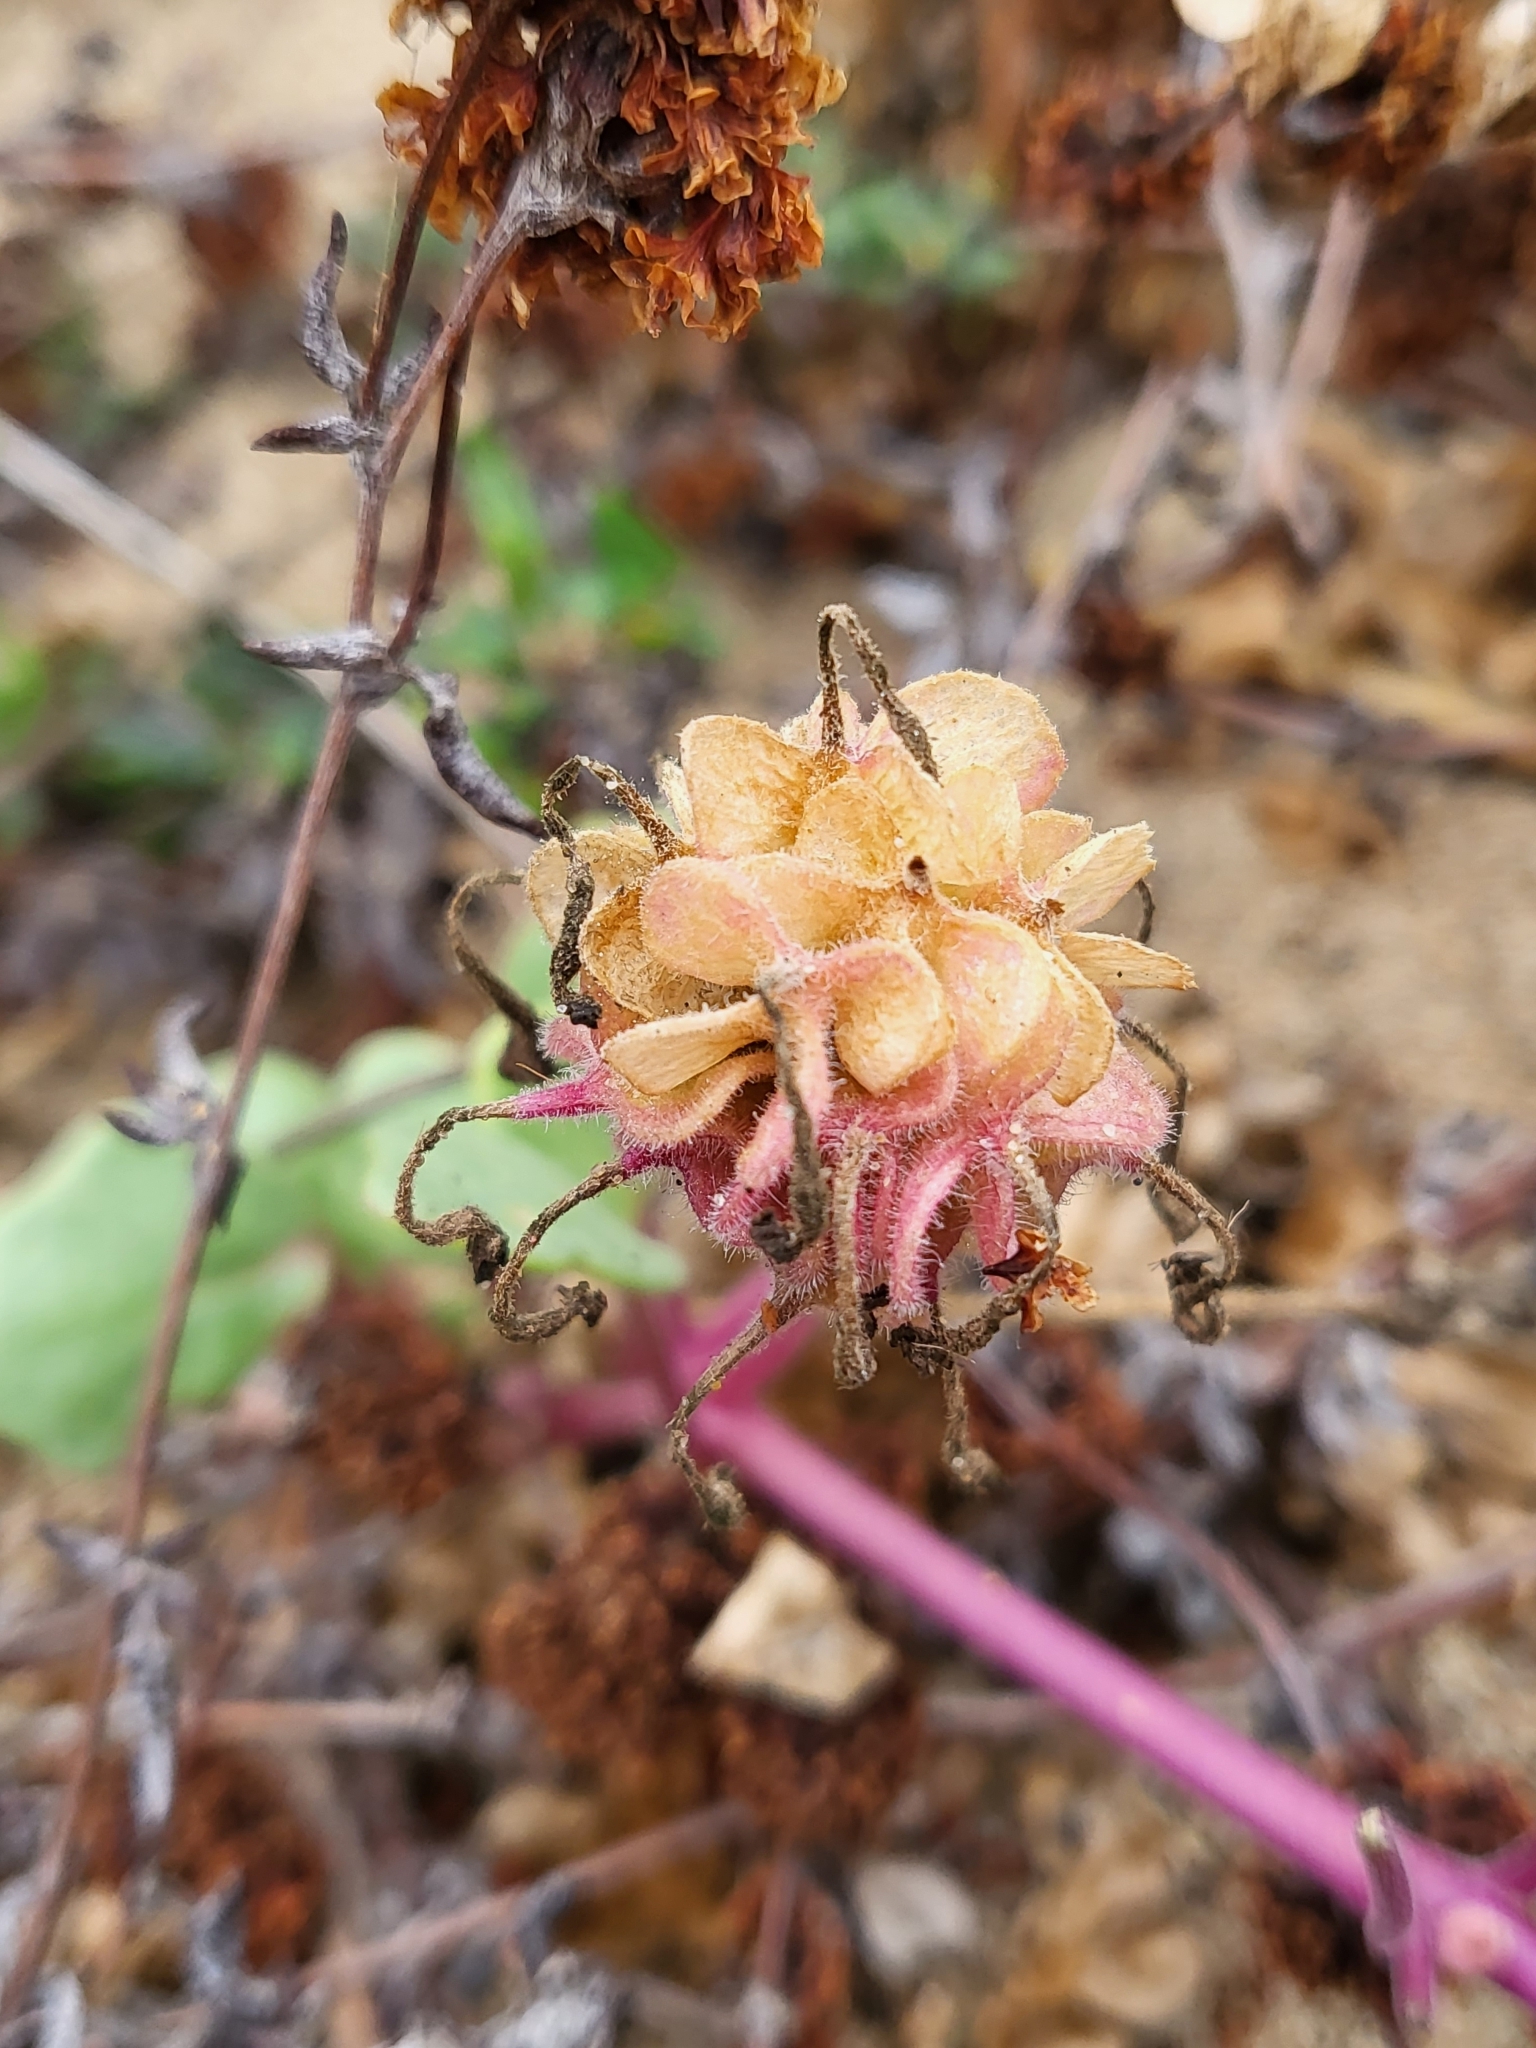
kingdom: Plantae
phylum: Tracheophyta
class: Magnoliopsida
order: Caryophyllales
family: Nyctaginaceae
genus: Abronia
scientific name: Abronia umbellata
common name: Sand-verbena
